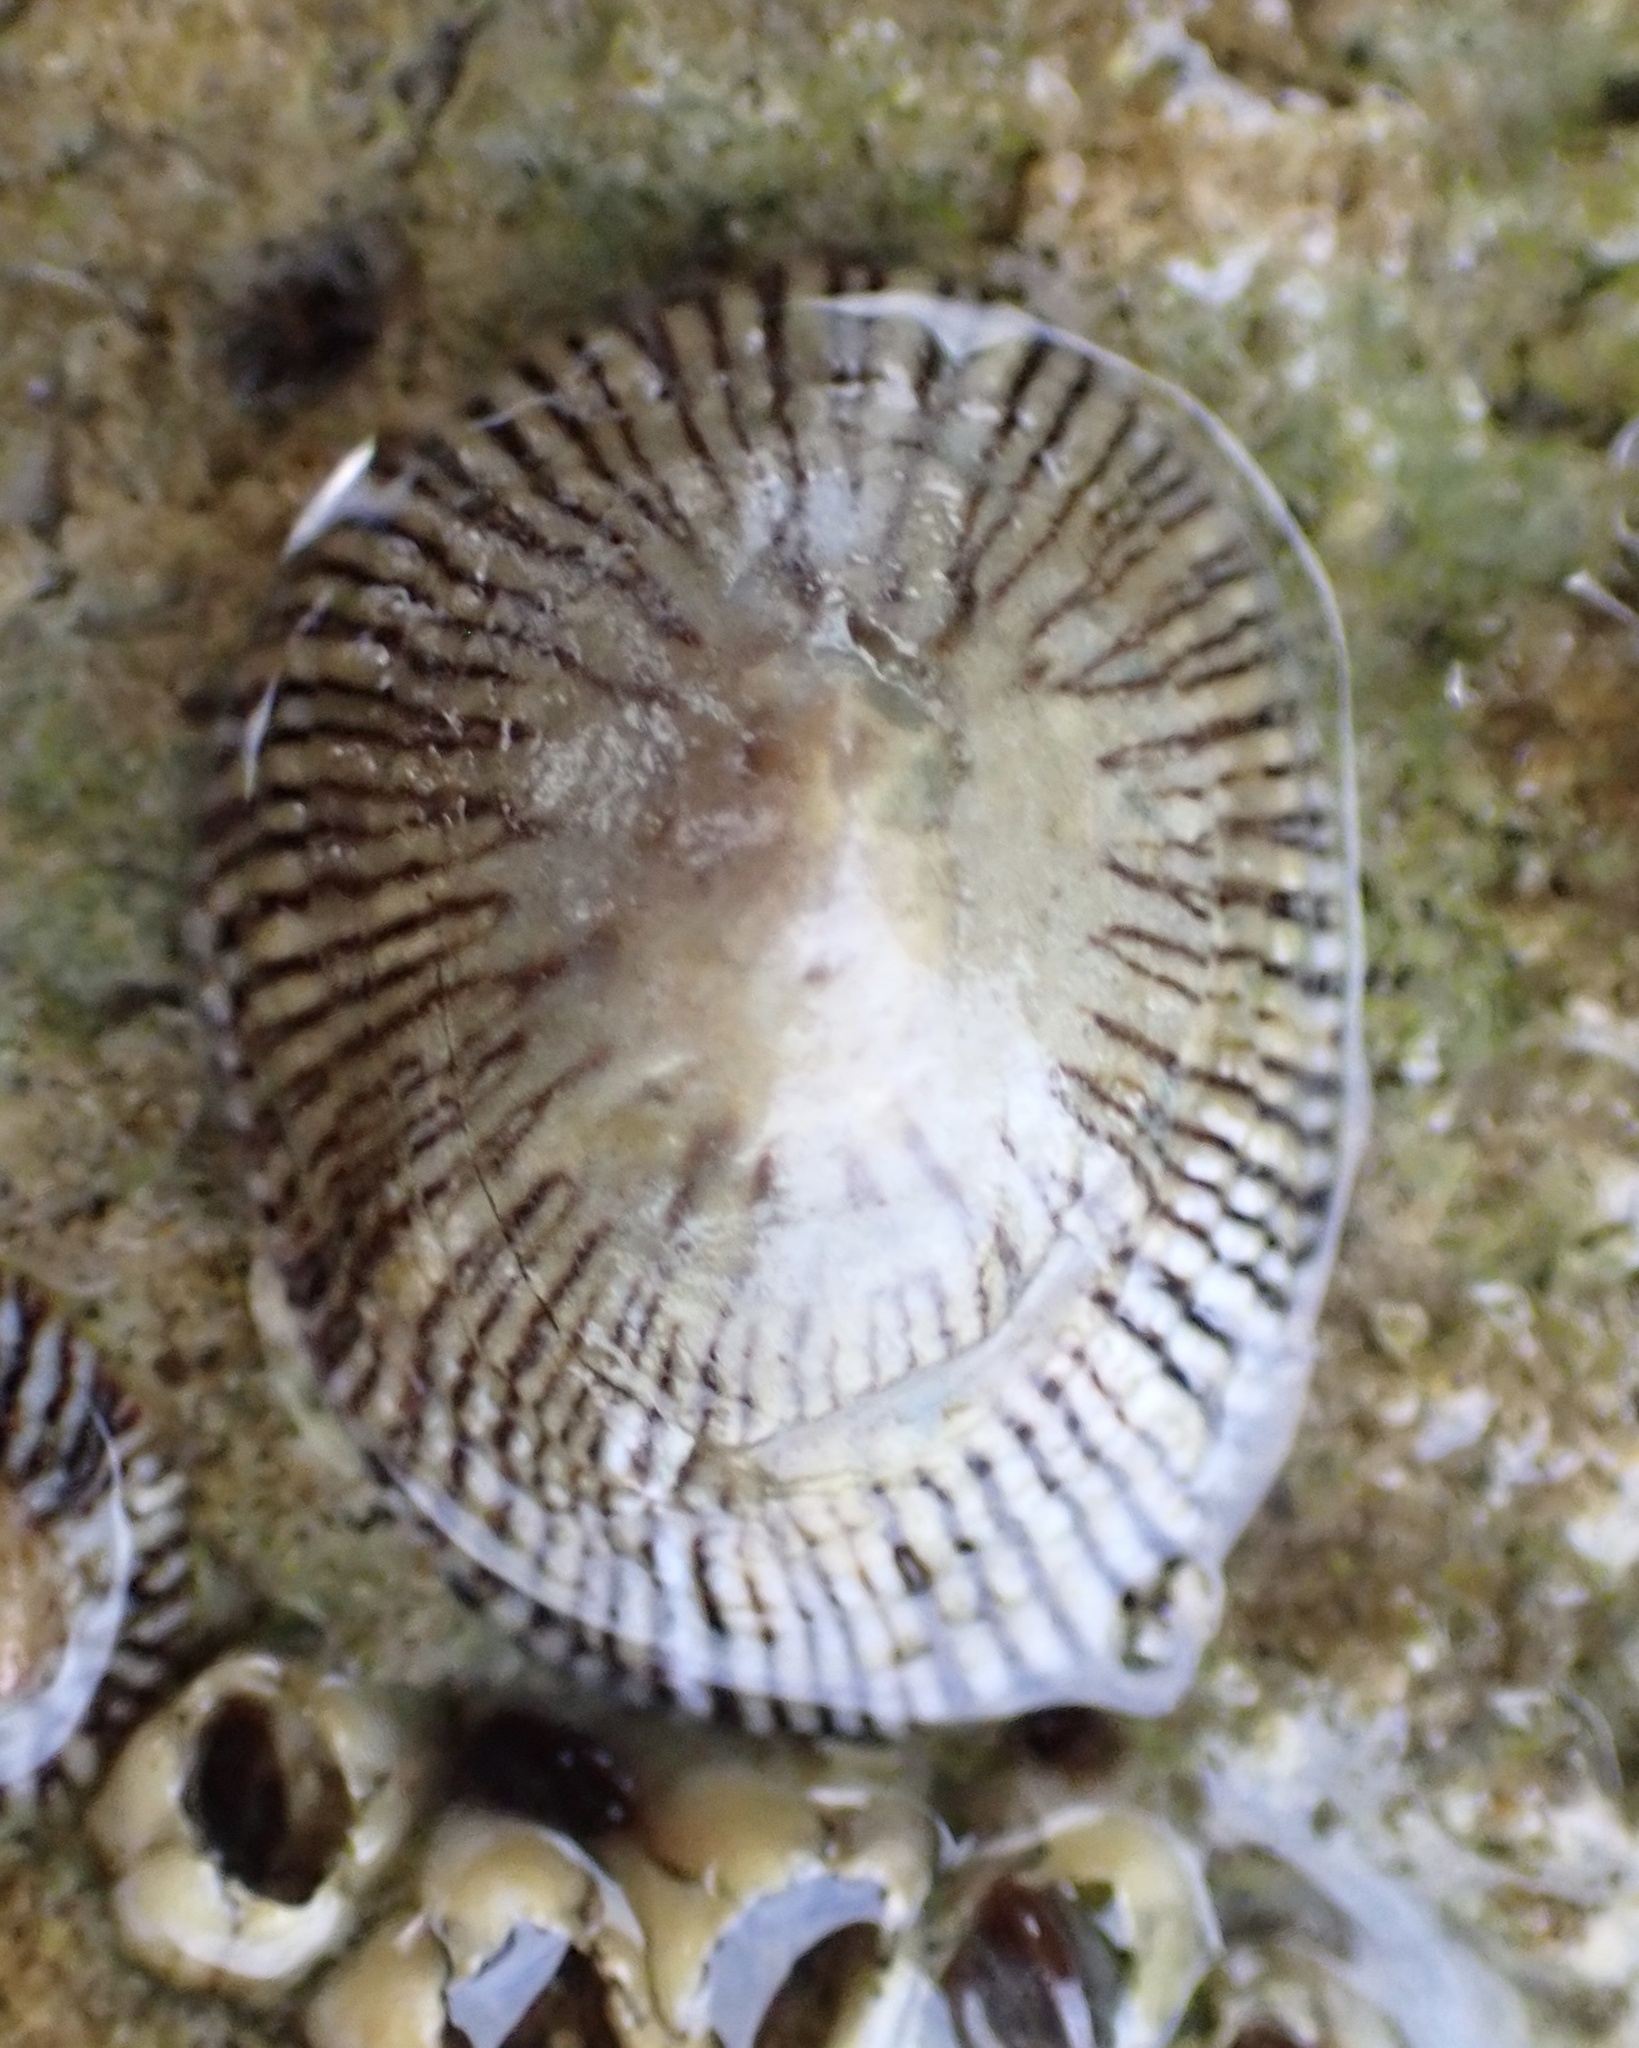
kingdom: Animalia
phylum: Mollusca
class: Gastropoda
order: Siphonariida
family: Siphonariidae
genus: Siphonaria
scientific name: Siphonaria naufragum
